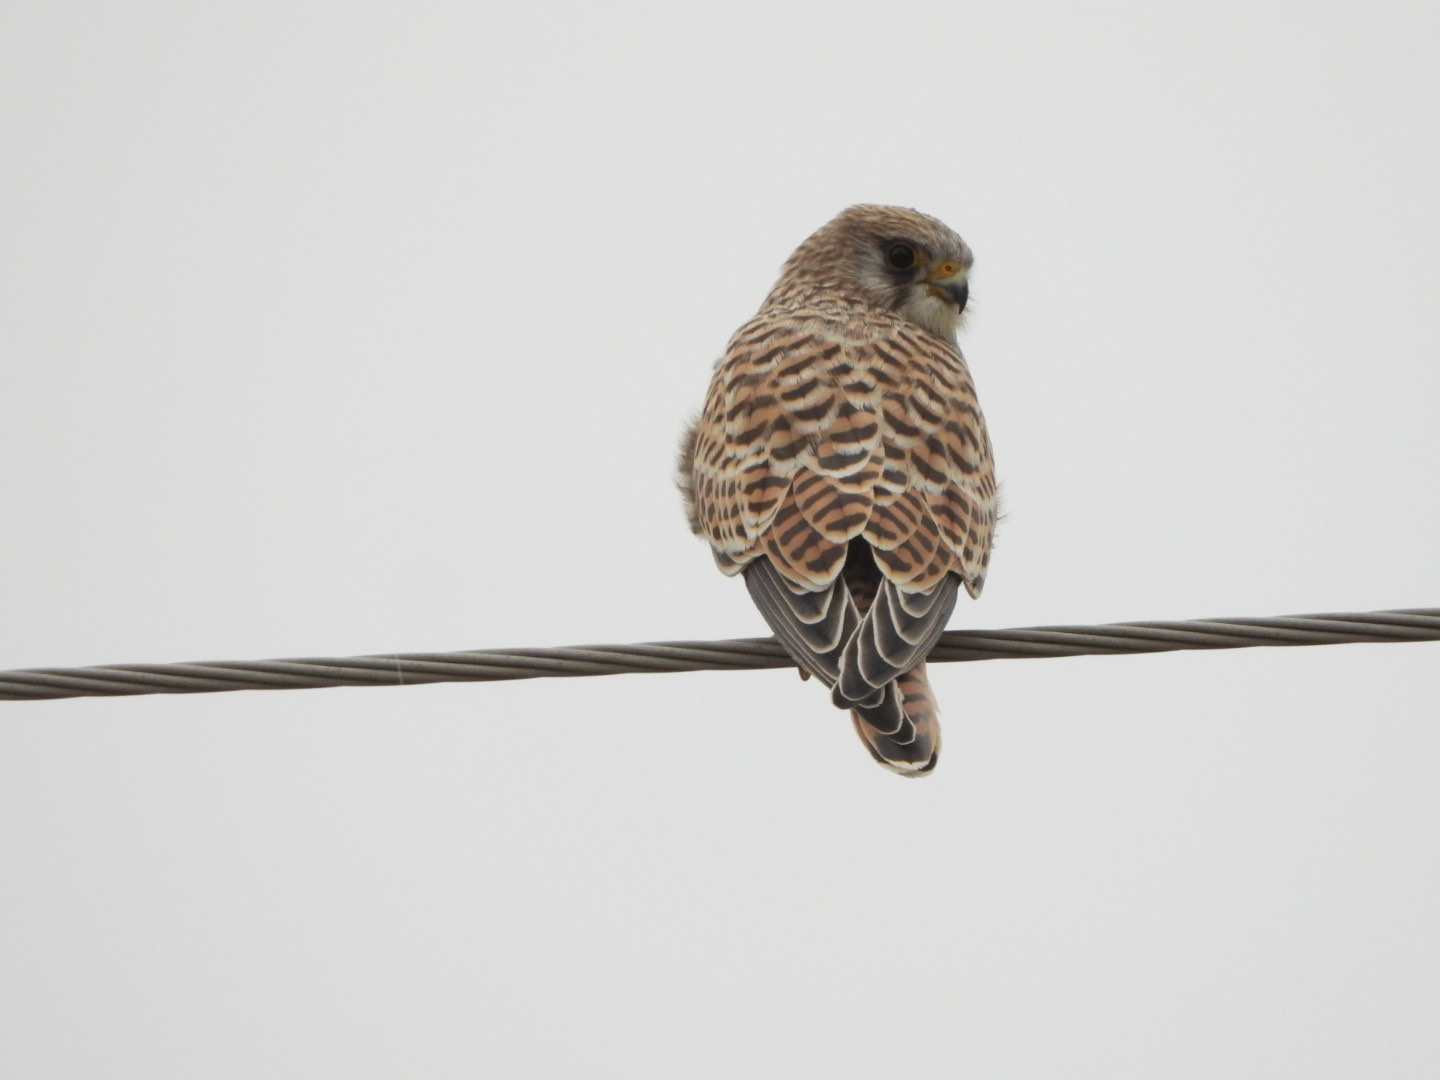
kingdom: Animalia
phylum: Chordata
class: Aves
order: Falconiformes
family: Falconidae
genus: Falco
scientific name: Falco tinnunculus
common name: Common kestrel
